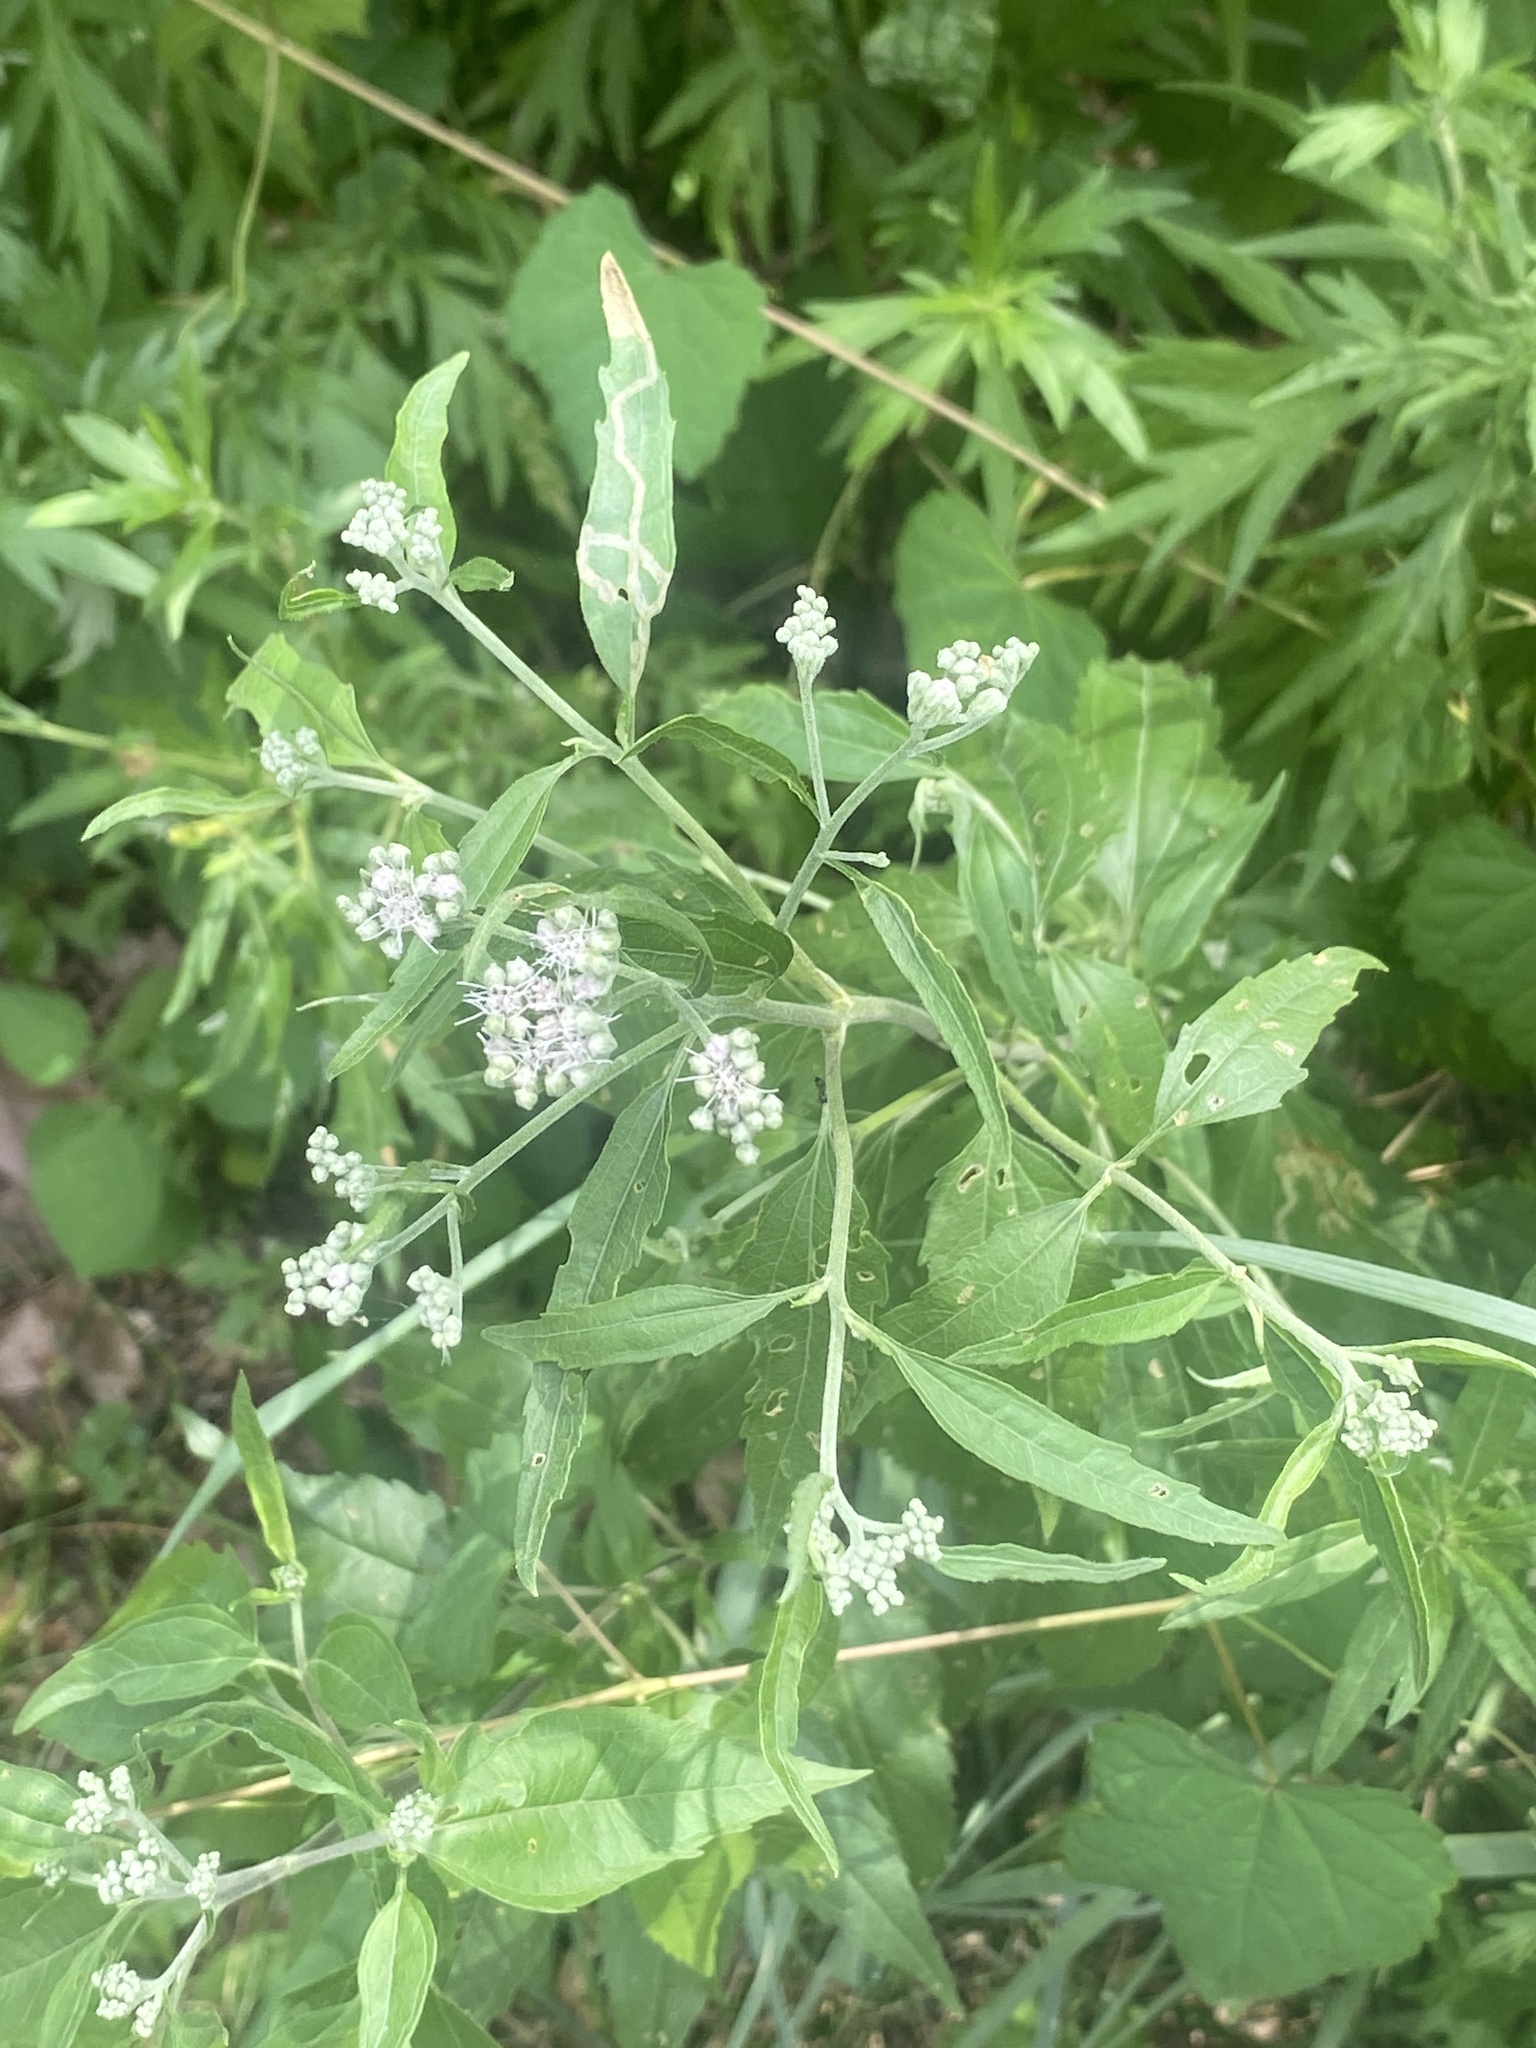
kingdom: Plantae
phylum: Tracheophyta
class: Magnoliopsida
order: Asterales
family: Asteraceae
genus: Eupatorium
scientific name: Eupatorium serotinum
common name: Late boneset
